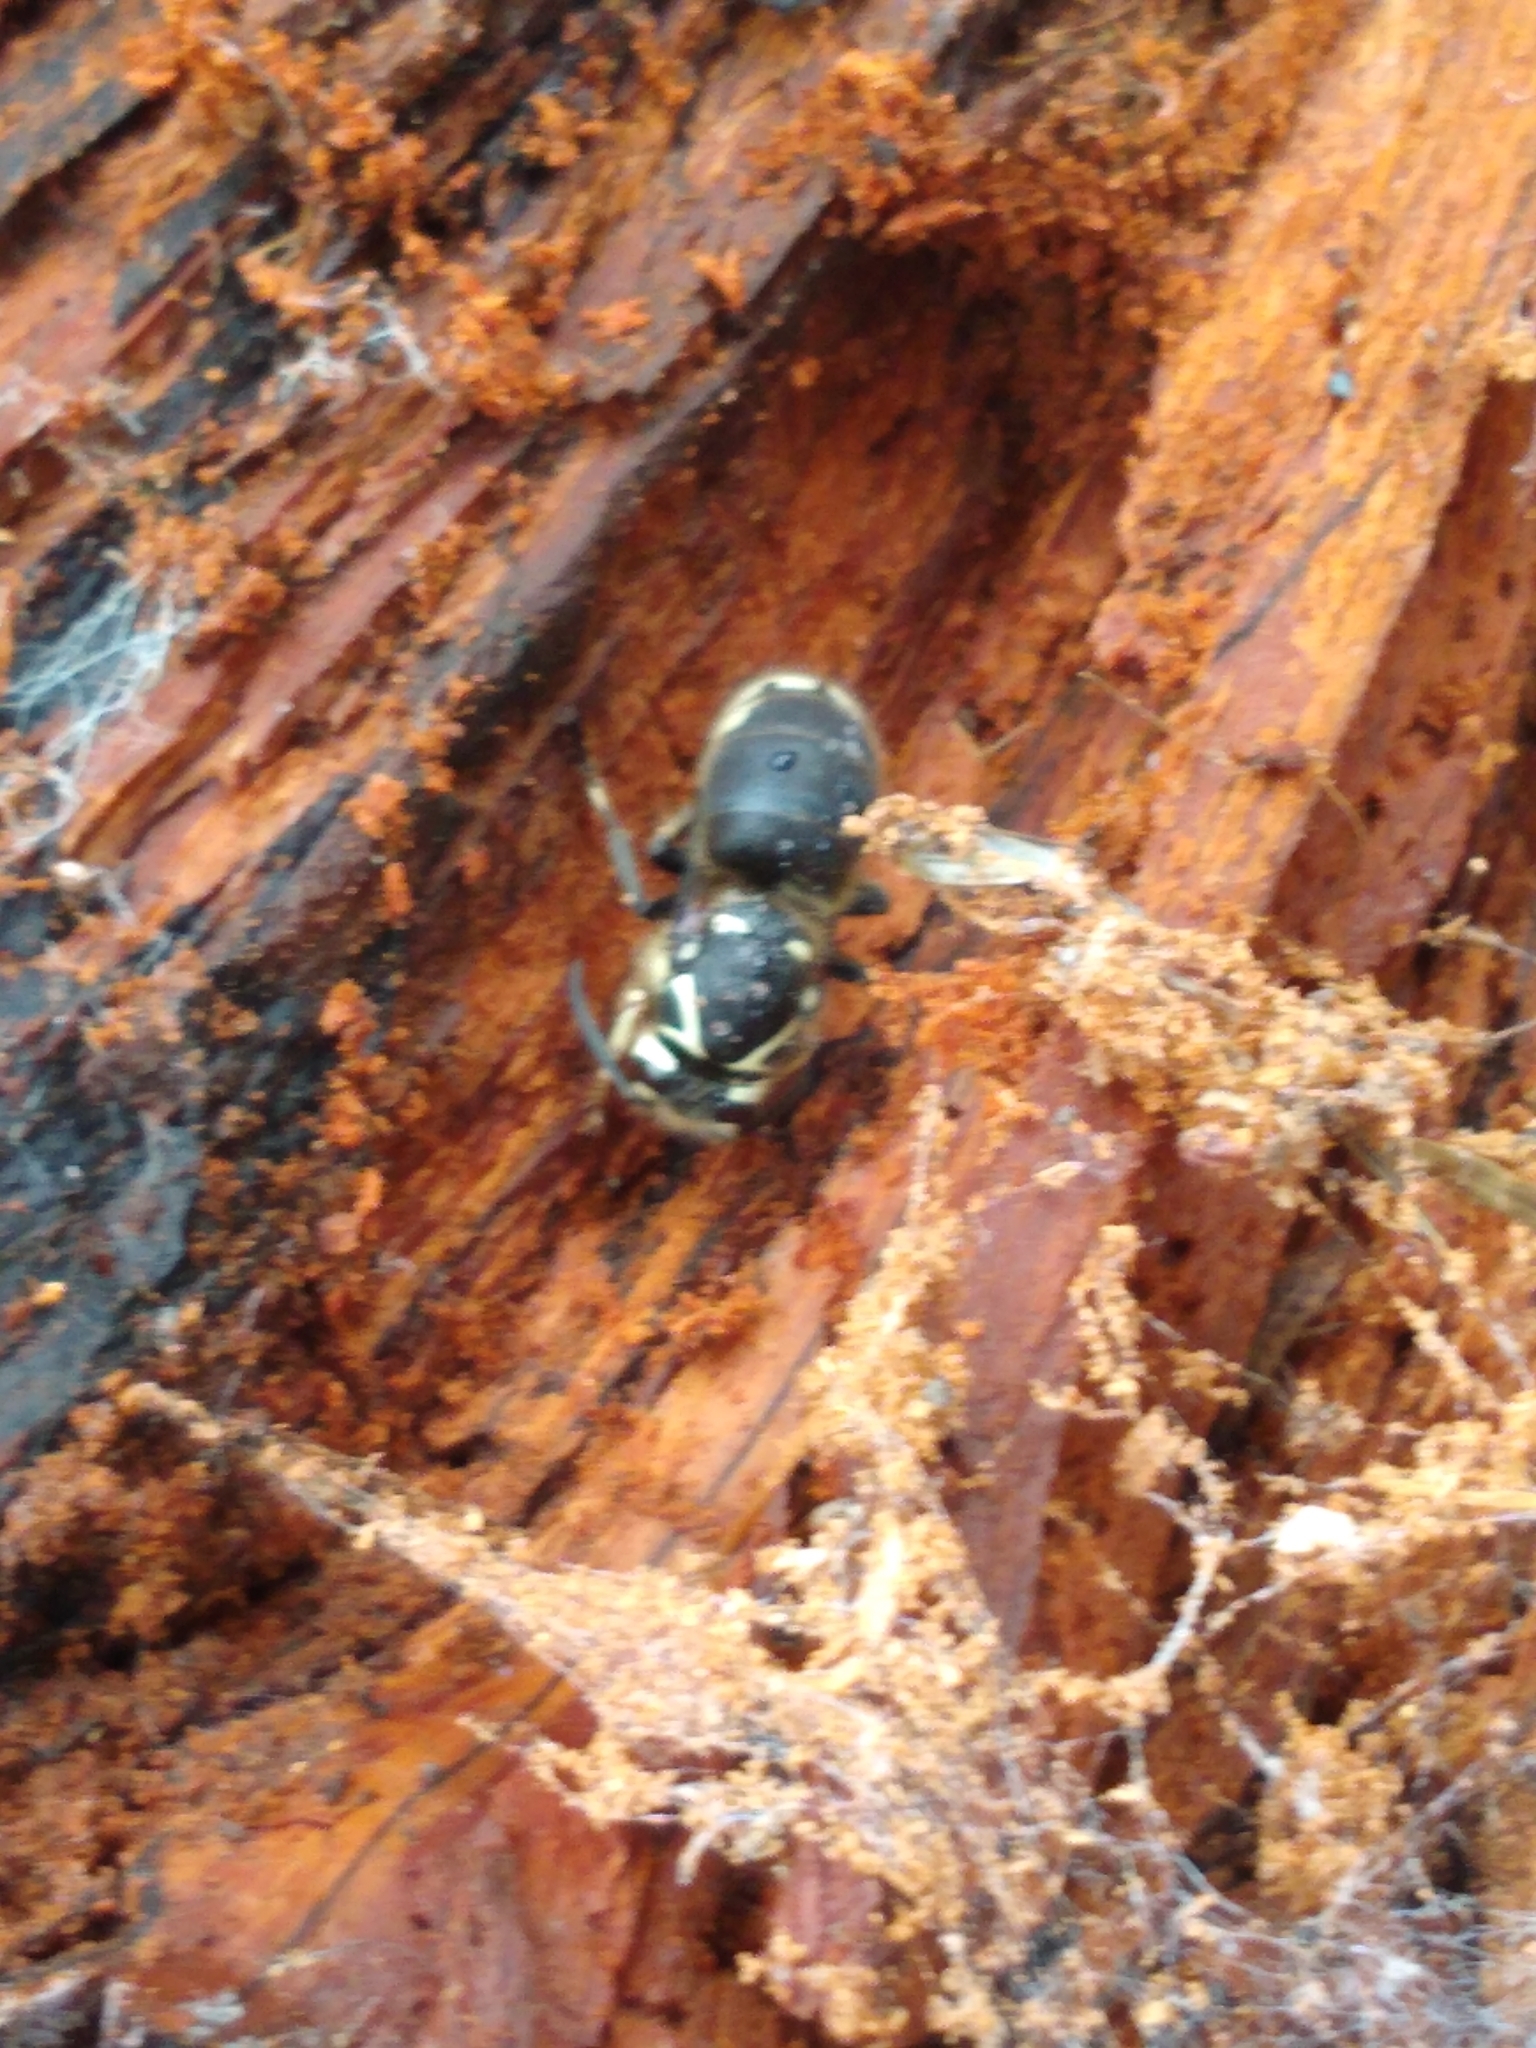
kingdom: Animalia
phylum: Arthropoda
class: Insecta
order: Hymenoptera
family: Vespidae
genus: Dolichovespula
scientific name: Dolichovespula maculata
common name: Bald-faced hornet
